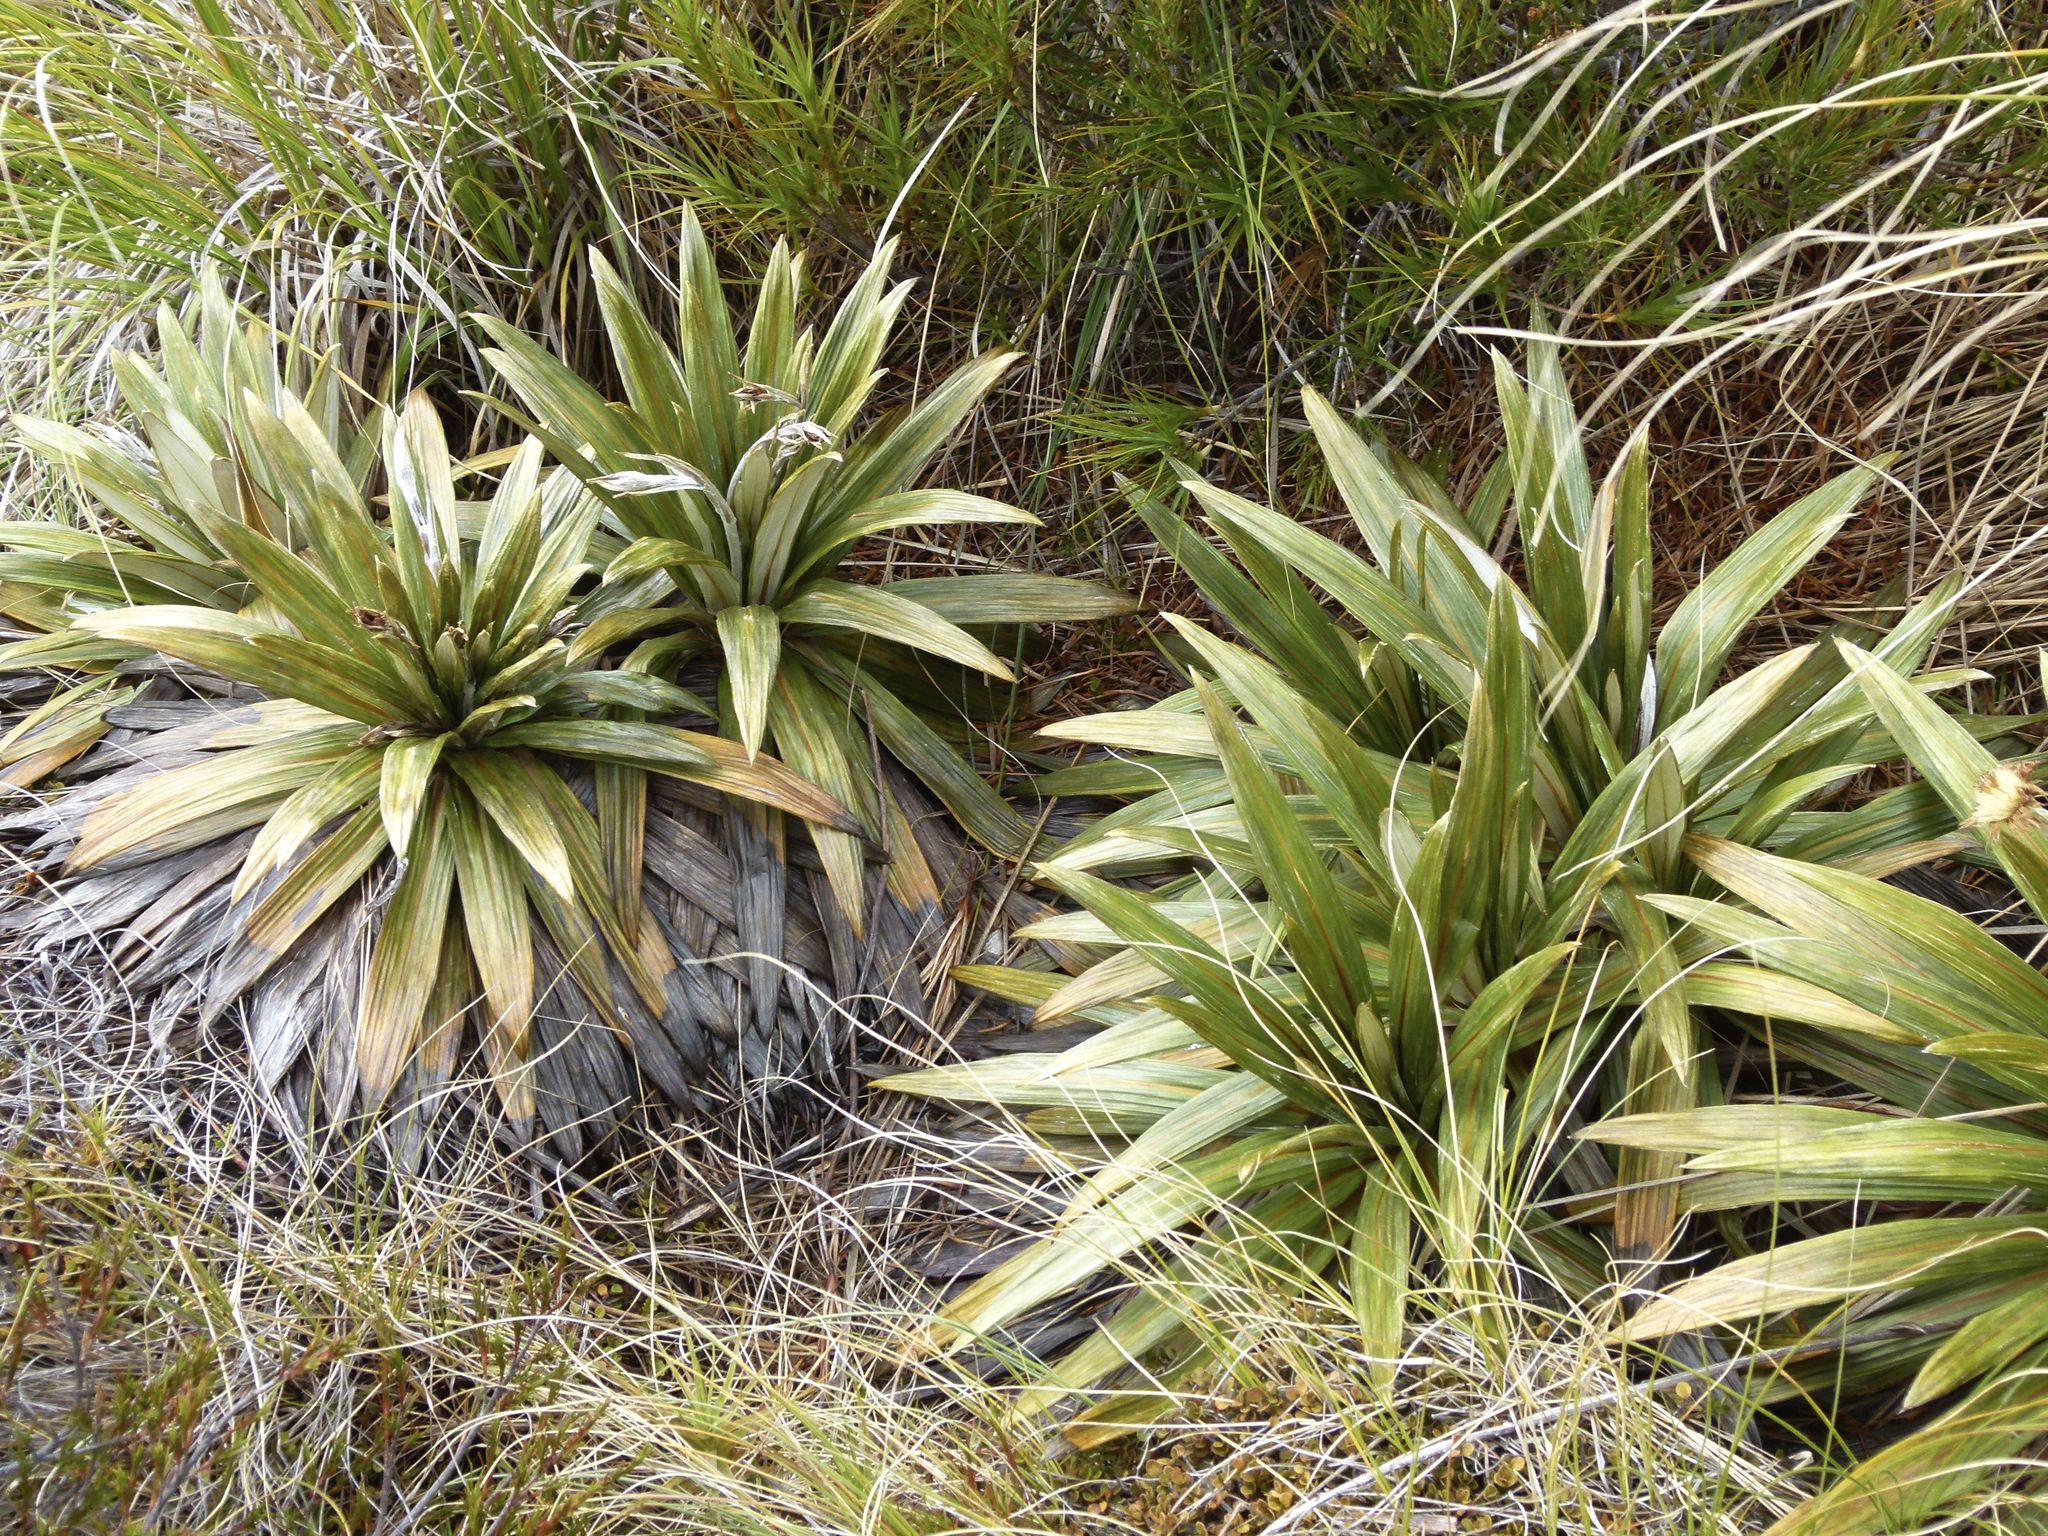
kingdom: Plantae
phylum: Tracheophyta
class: Magnoliopsida
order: Asterales
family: Asteraceae
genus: Celmisia
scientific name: Celmisia coriacea
